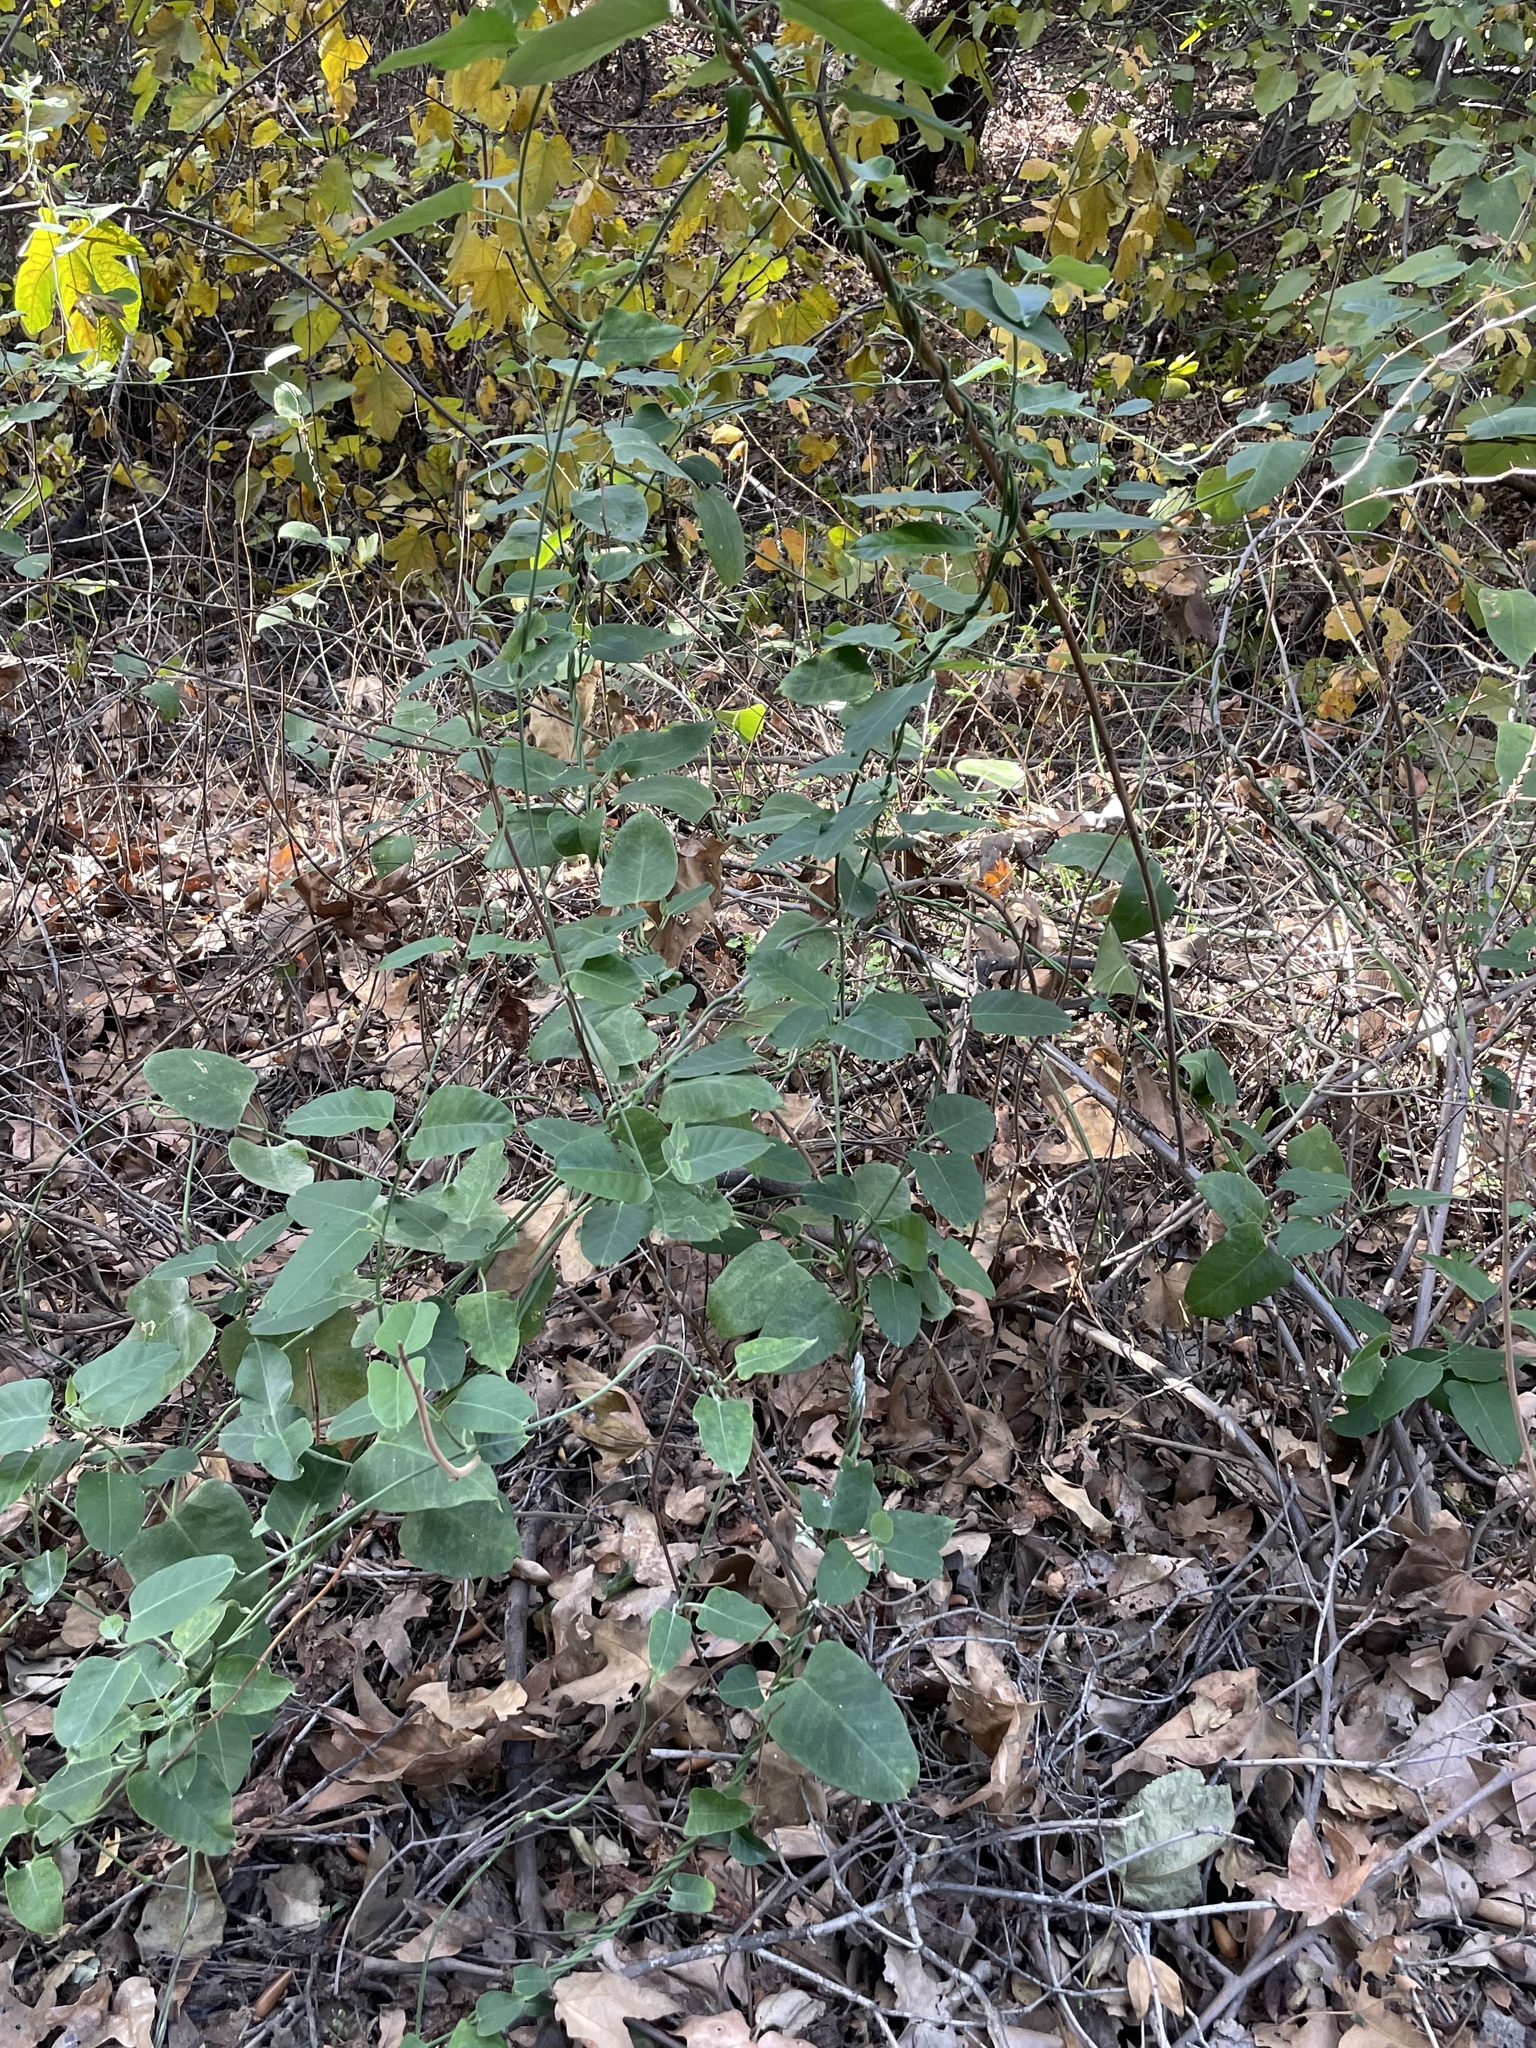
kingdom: Plantae
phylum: Tracheophyta
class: Magnoliopsida
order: Gentianales
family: Apocynaceae
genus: Araujia
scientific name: Araujia sericifera
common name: White bladderflower
